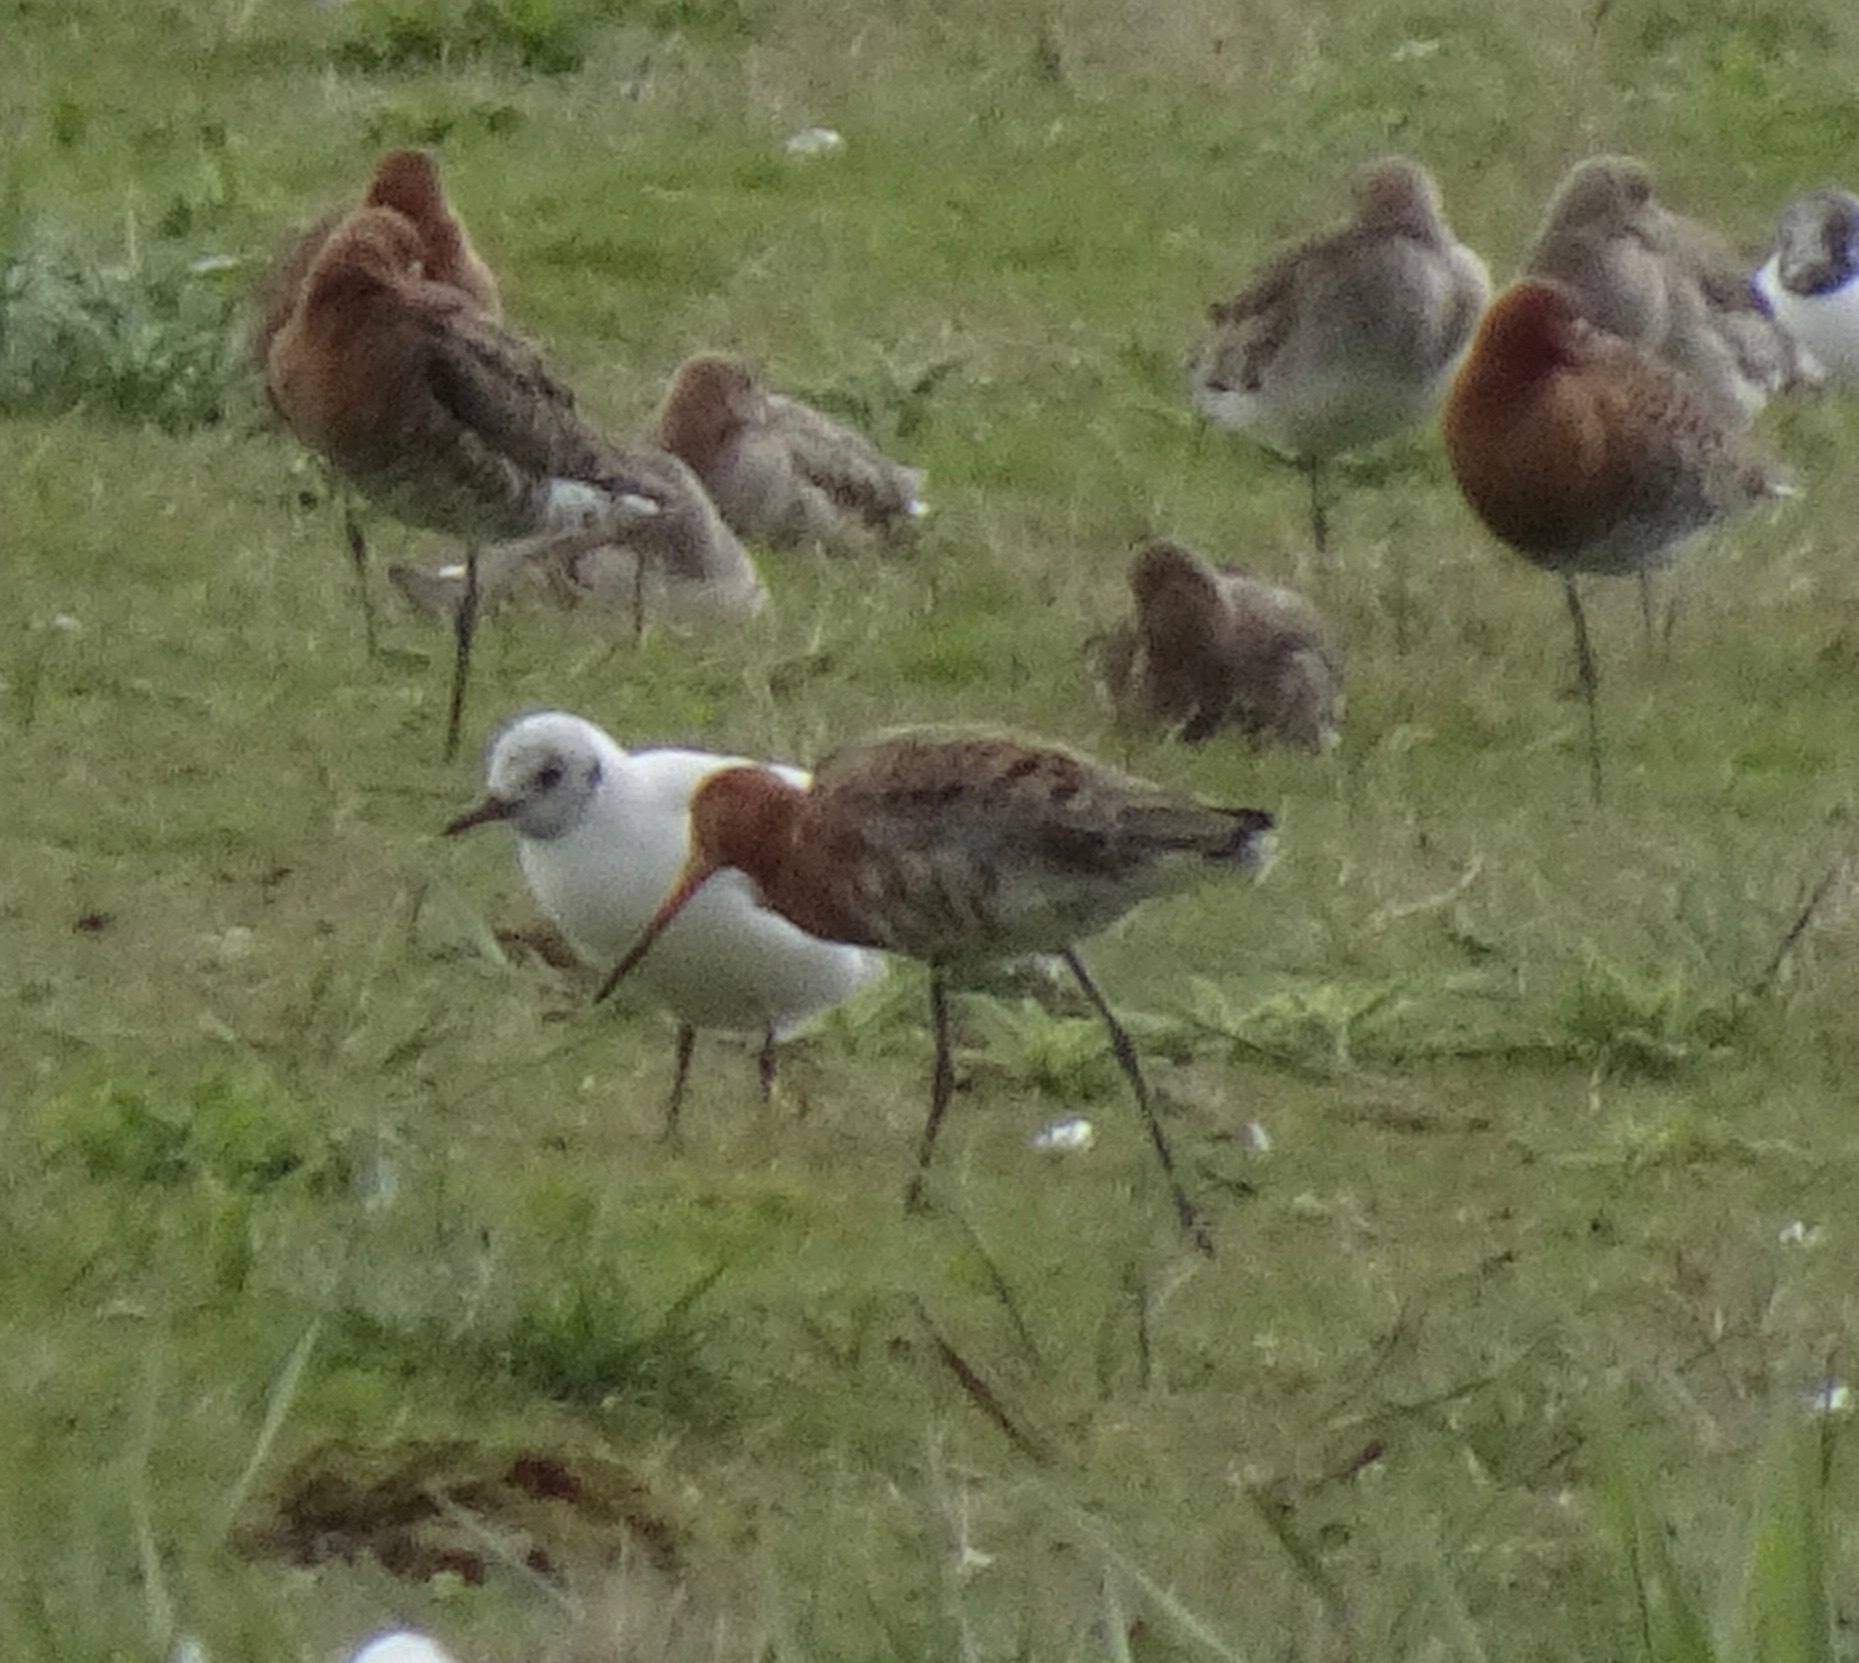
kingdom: Animalia
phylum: Chordata
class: Aves
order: Charadriiformes
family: Scolopacidae
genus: Limosa
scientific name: Limosa limosa
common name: Black-tailed godwit
